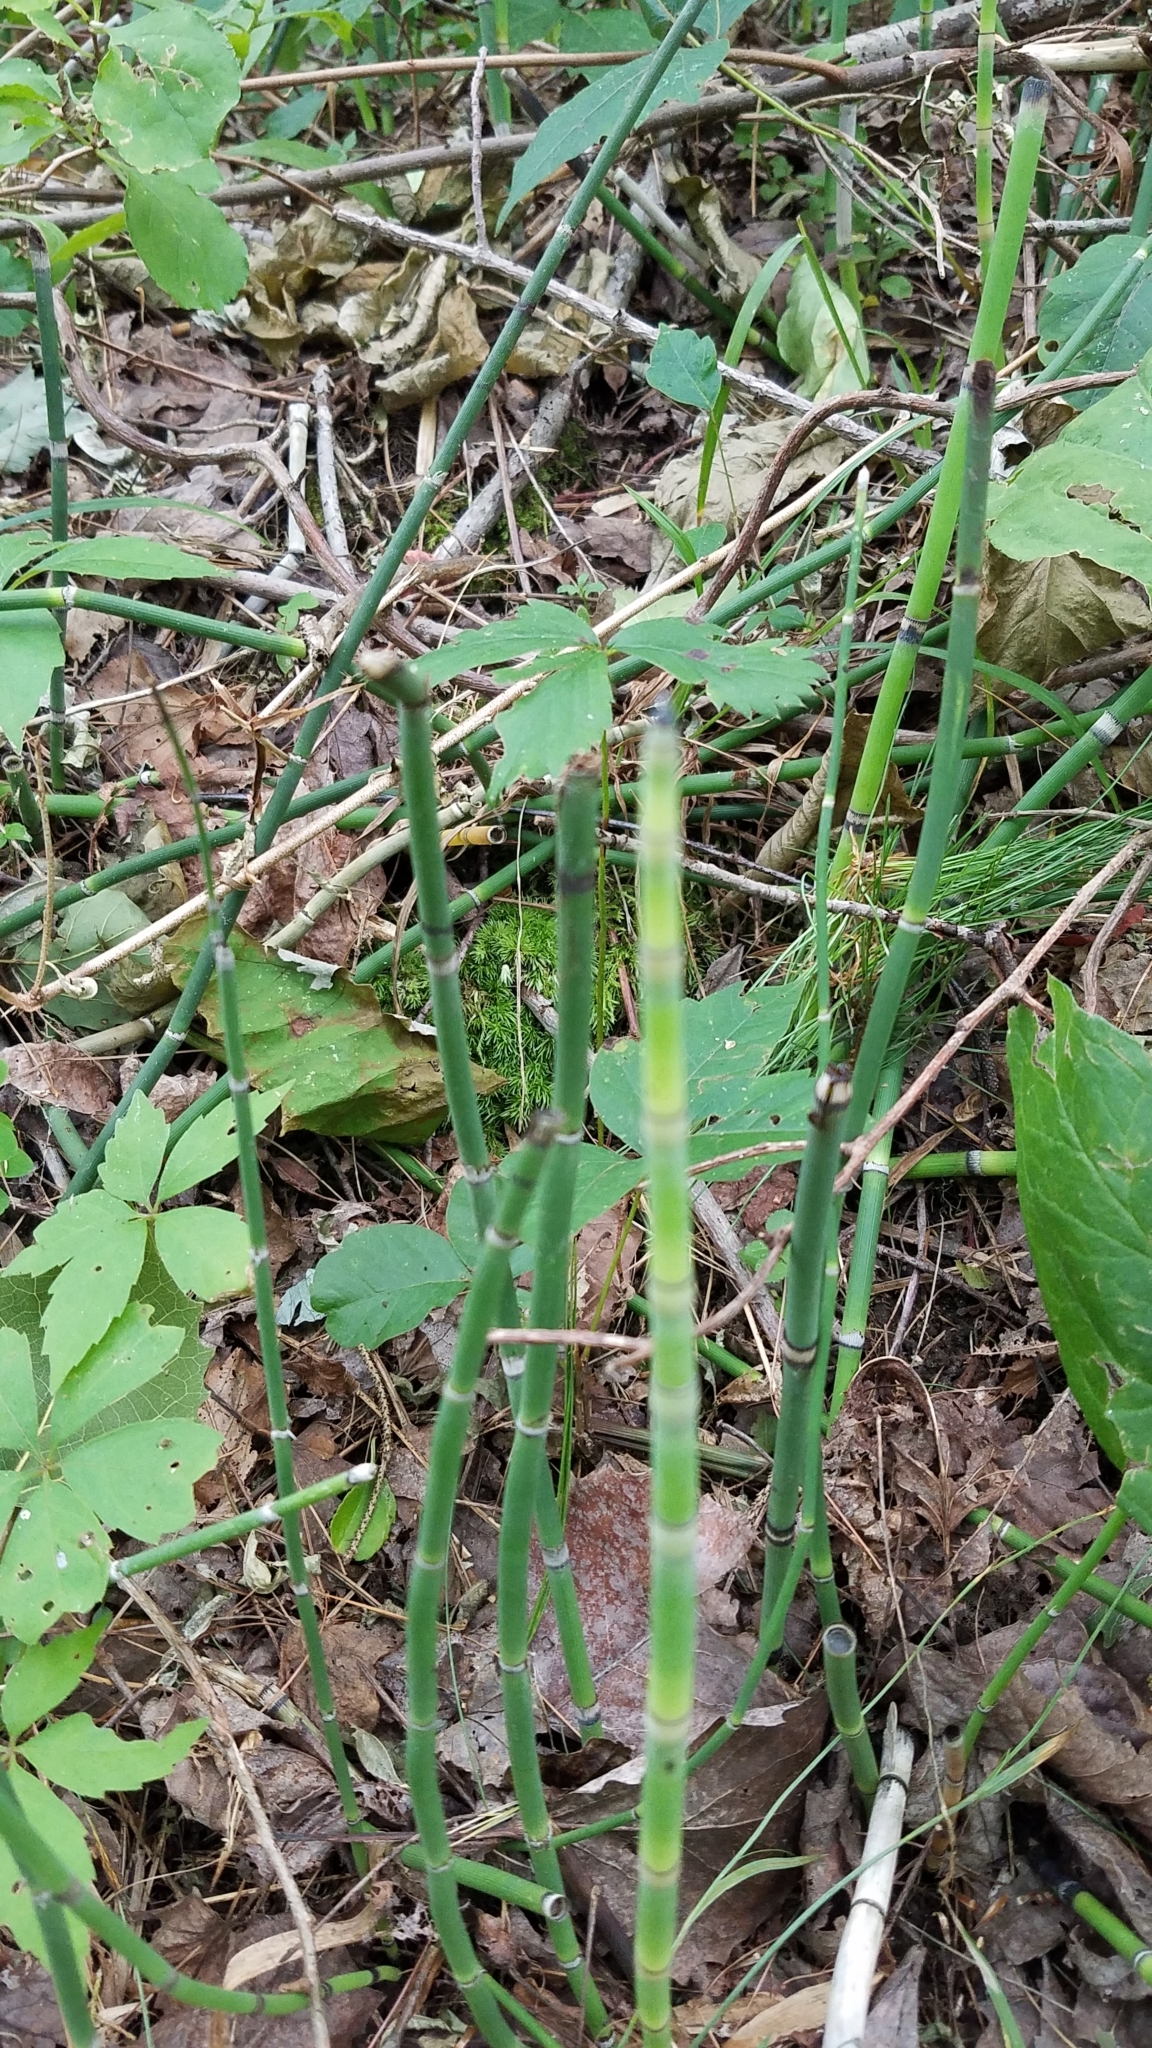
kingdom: Plantae
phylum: Tracheophyta
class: Polypodiopsida
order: Equisetales
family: Equisetaceae
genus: Equisetum
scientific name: Equisetum praealtum
